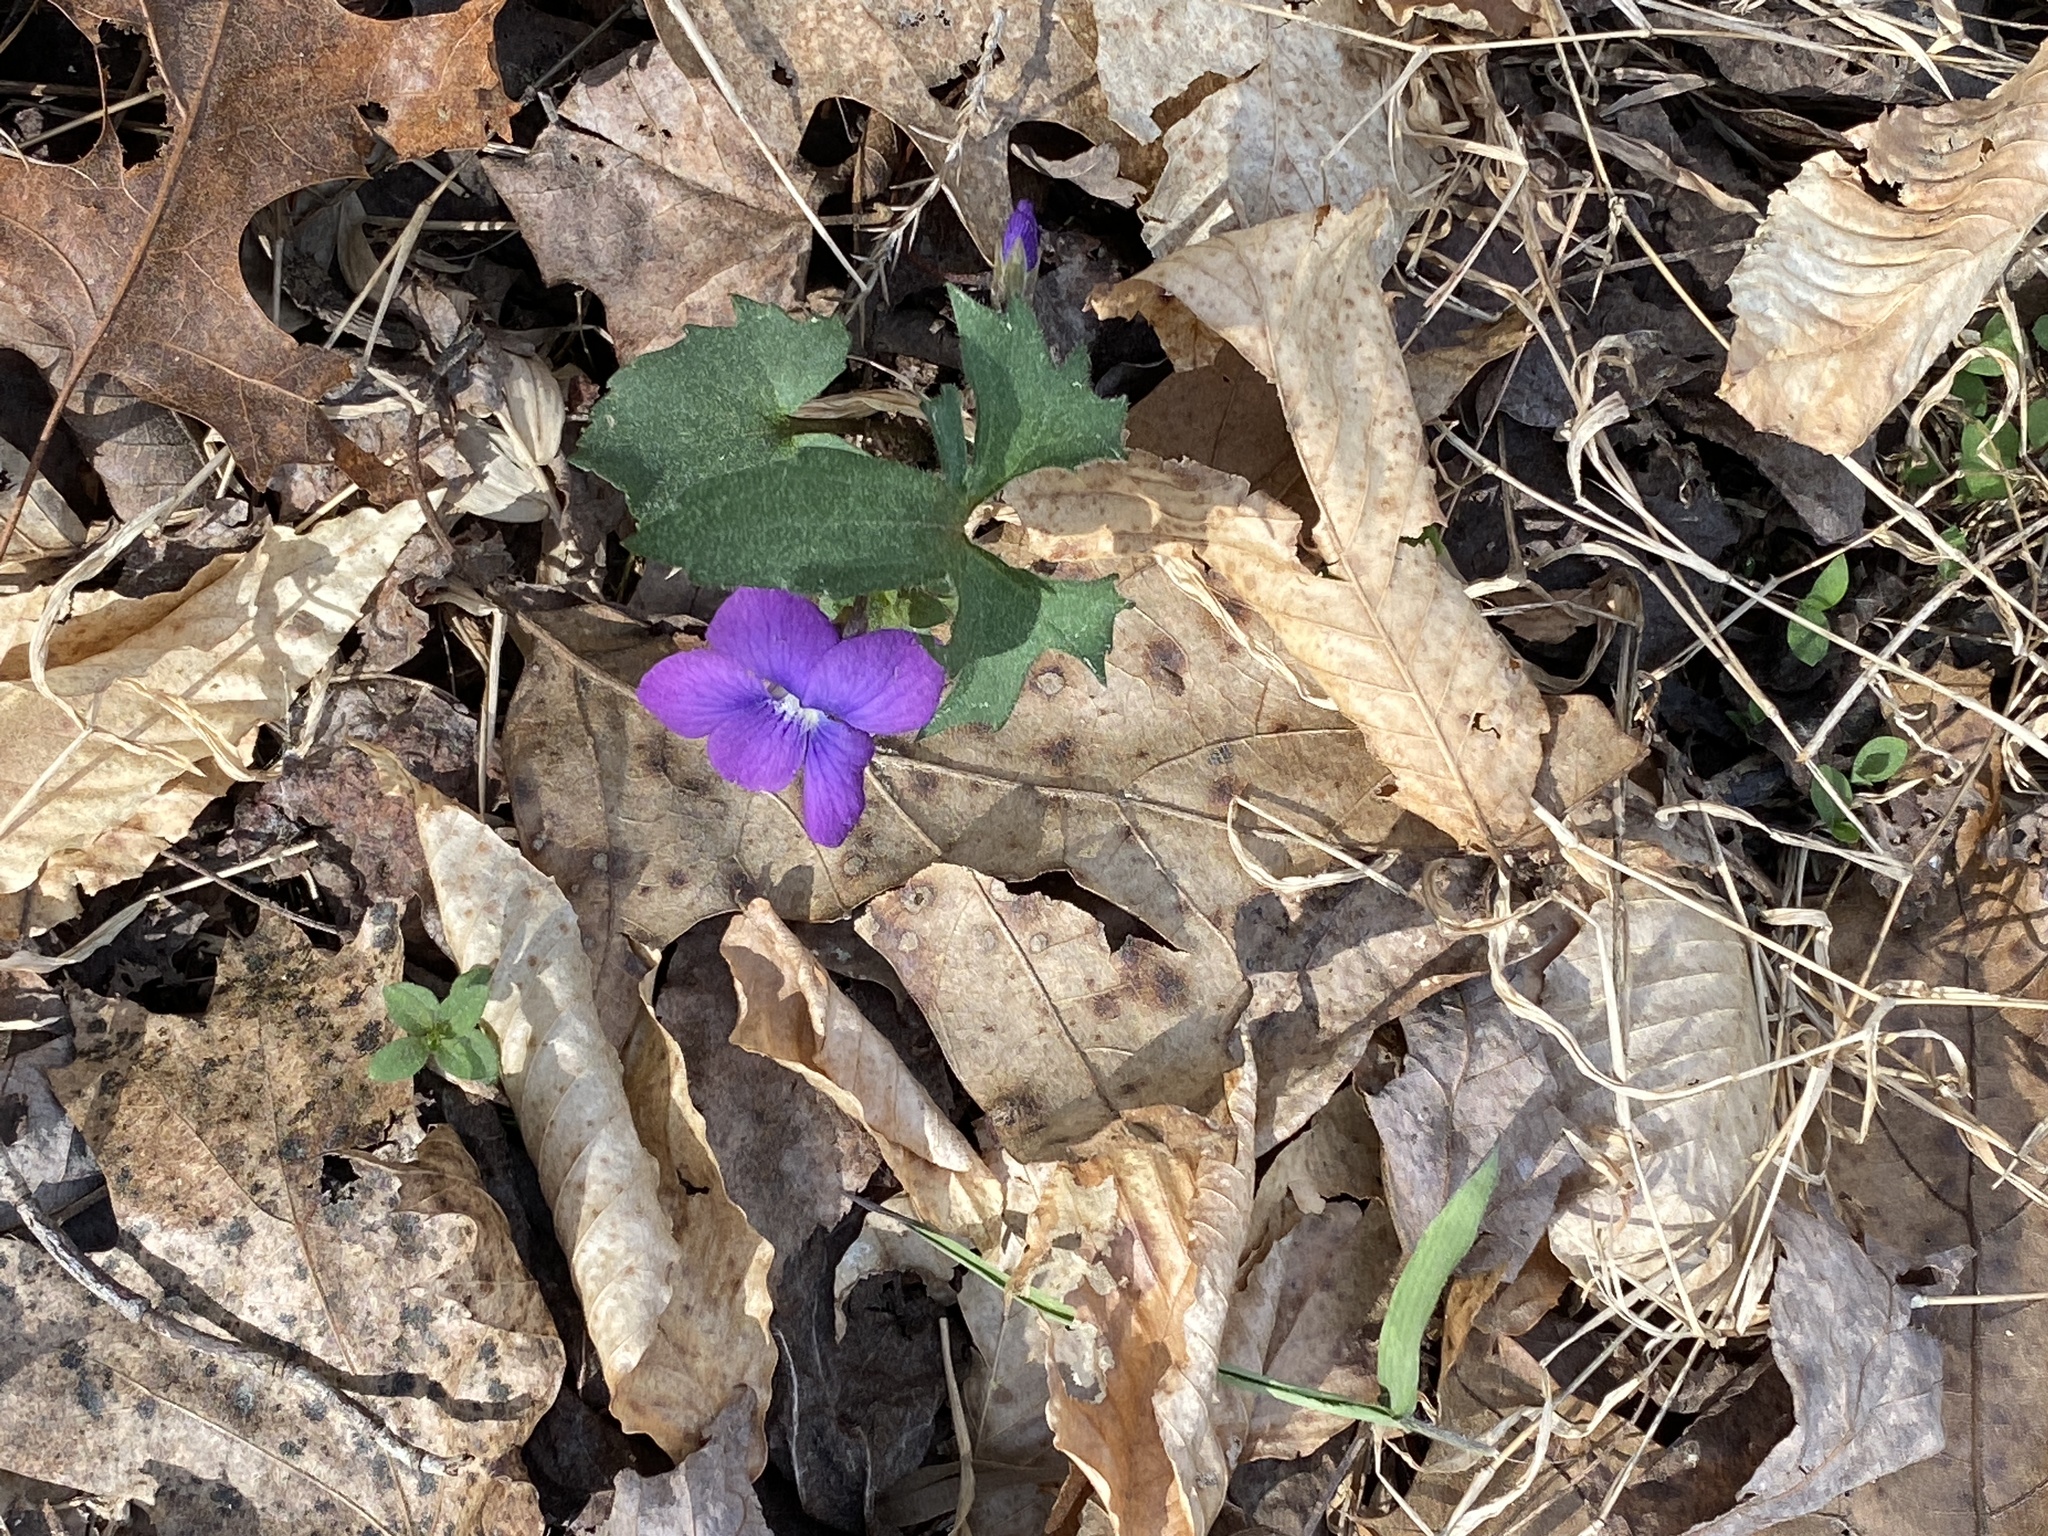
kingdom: Plantae
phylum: Tracheophyta
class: Magnoliopsida
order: Malpighiales
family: Violaceae
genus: Viola
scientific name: Viola palmata
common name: Early blue violet
